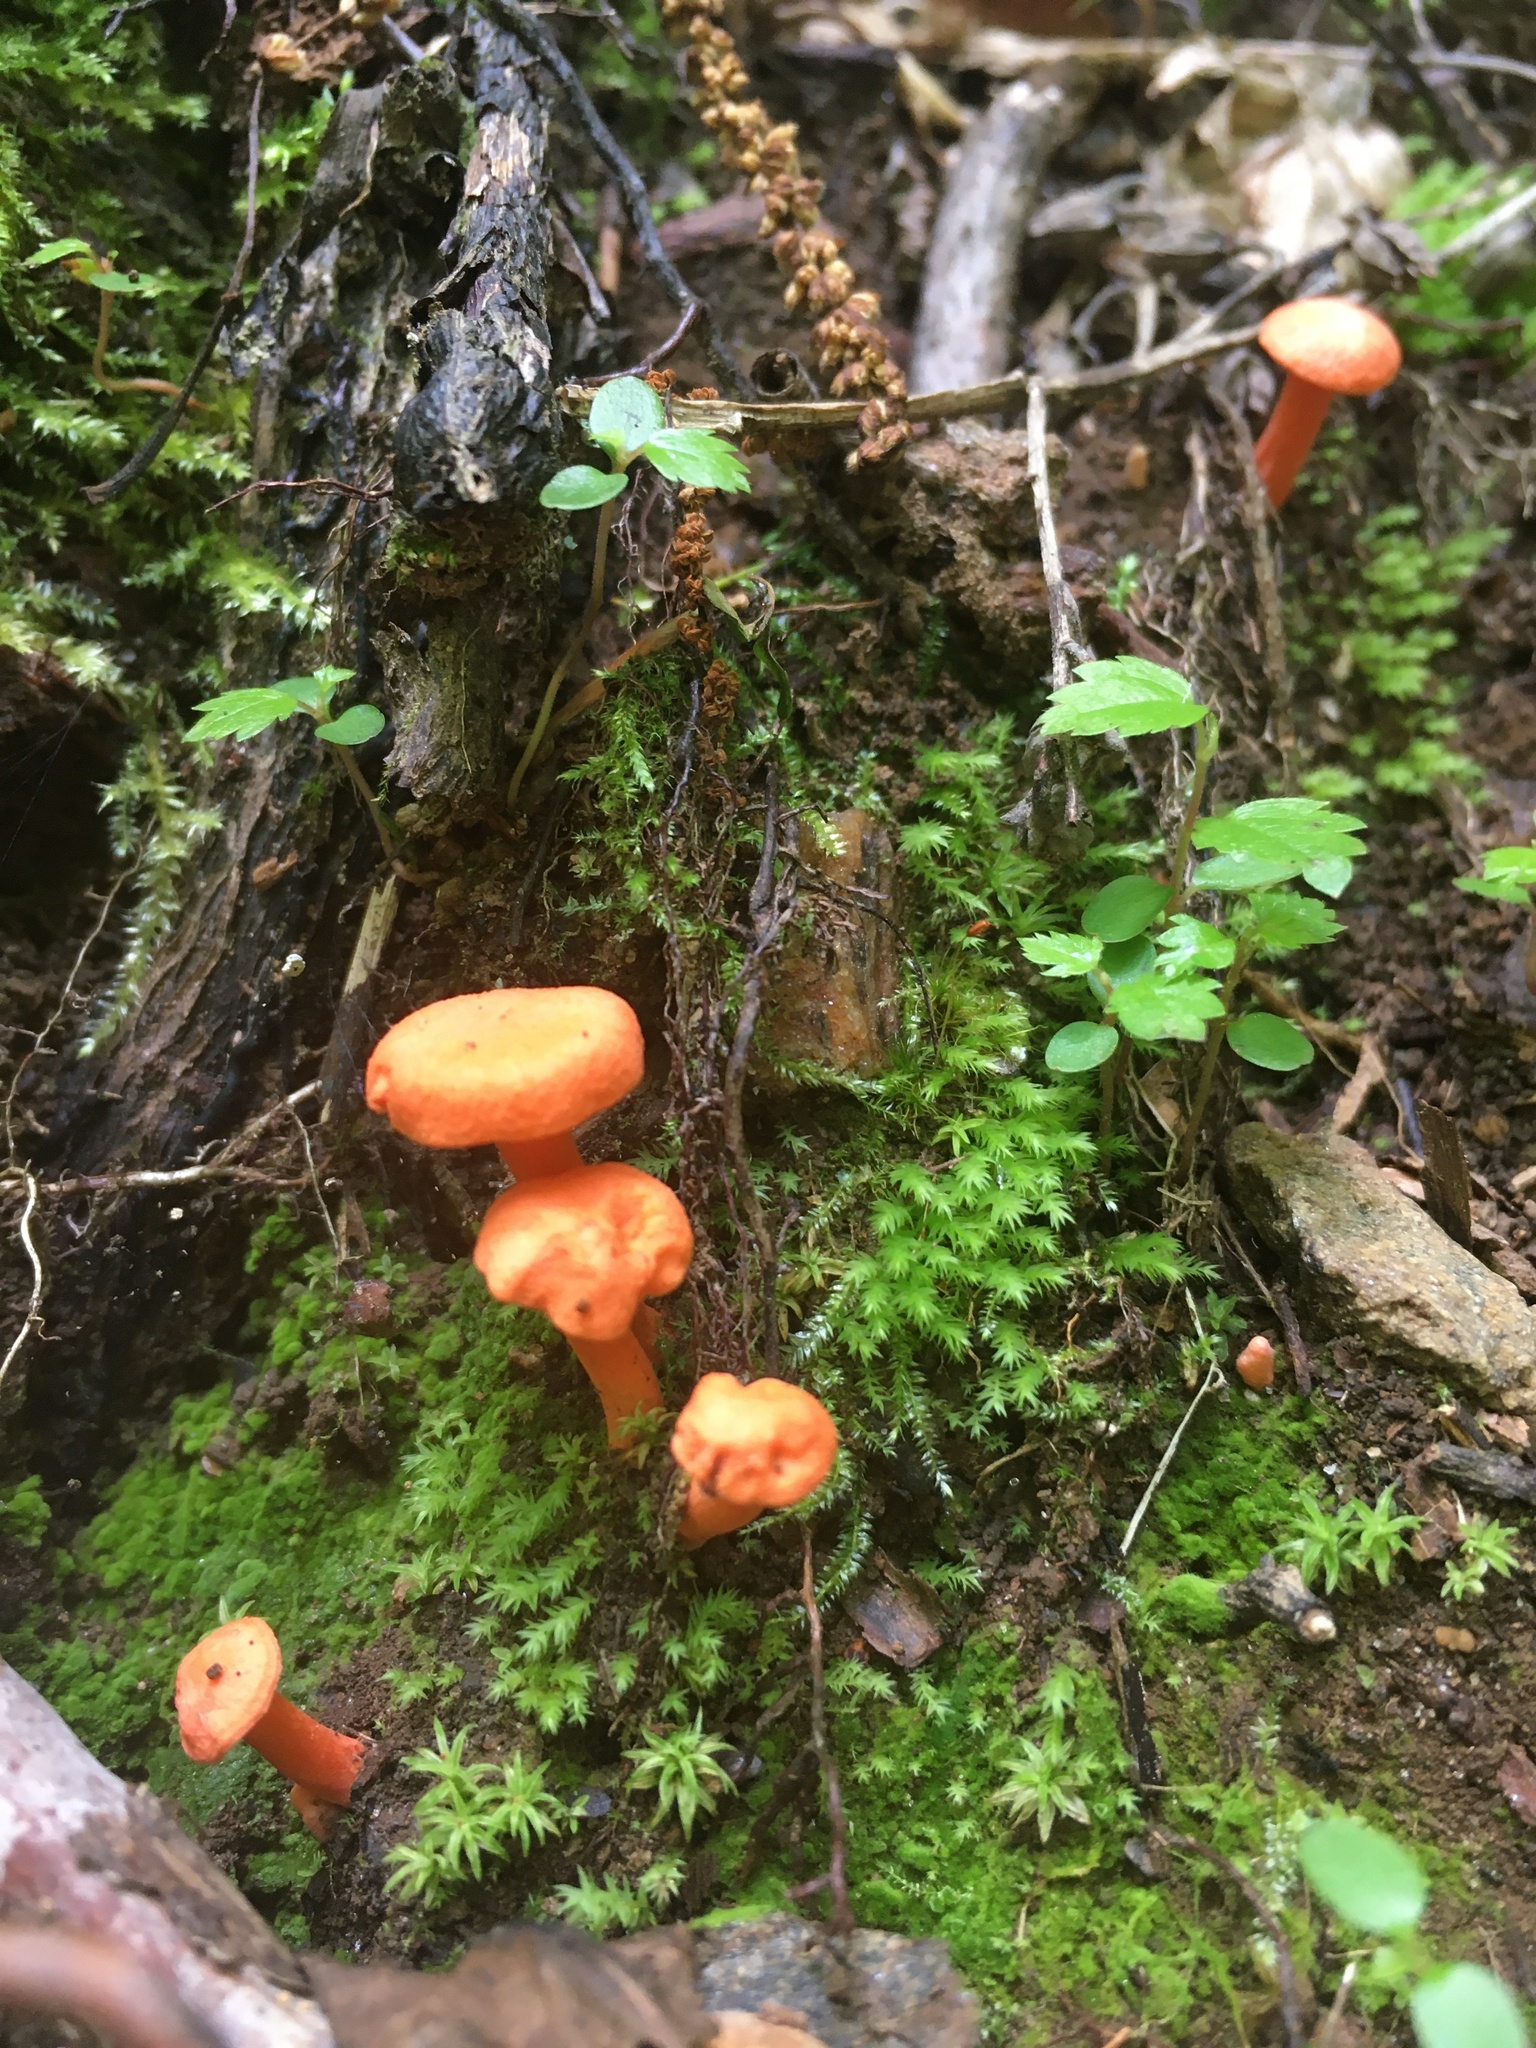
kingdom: Fungi
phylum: Basidiomycota
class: Agaricomycetes
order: Cantharellales
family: Hydnaceae
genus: Cantharellus
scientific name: Cantharellus cinnabarinus
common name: Cinnabar chanterelle
